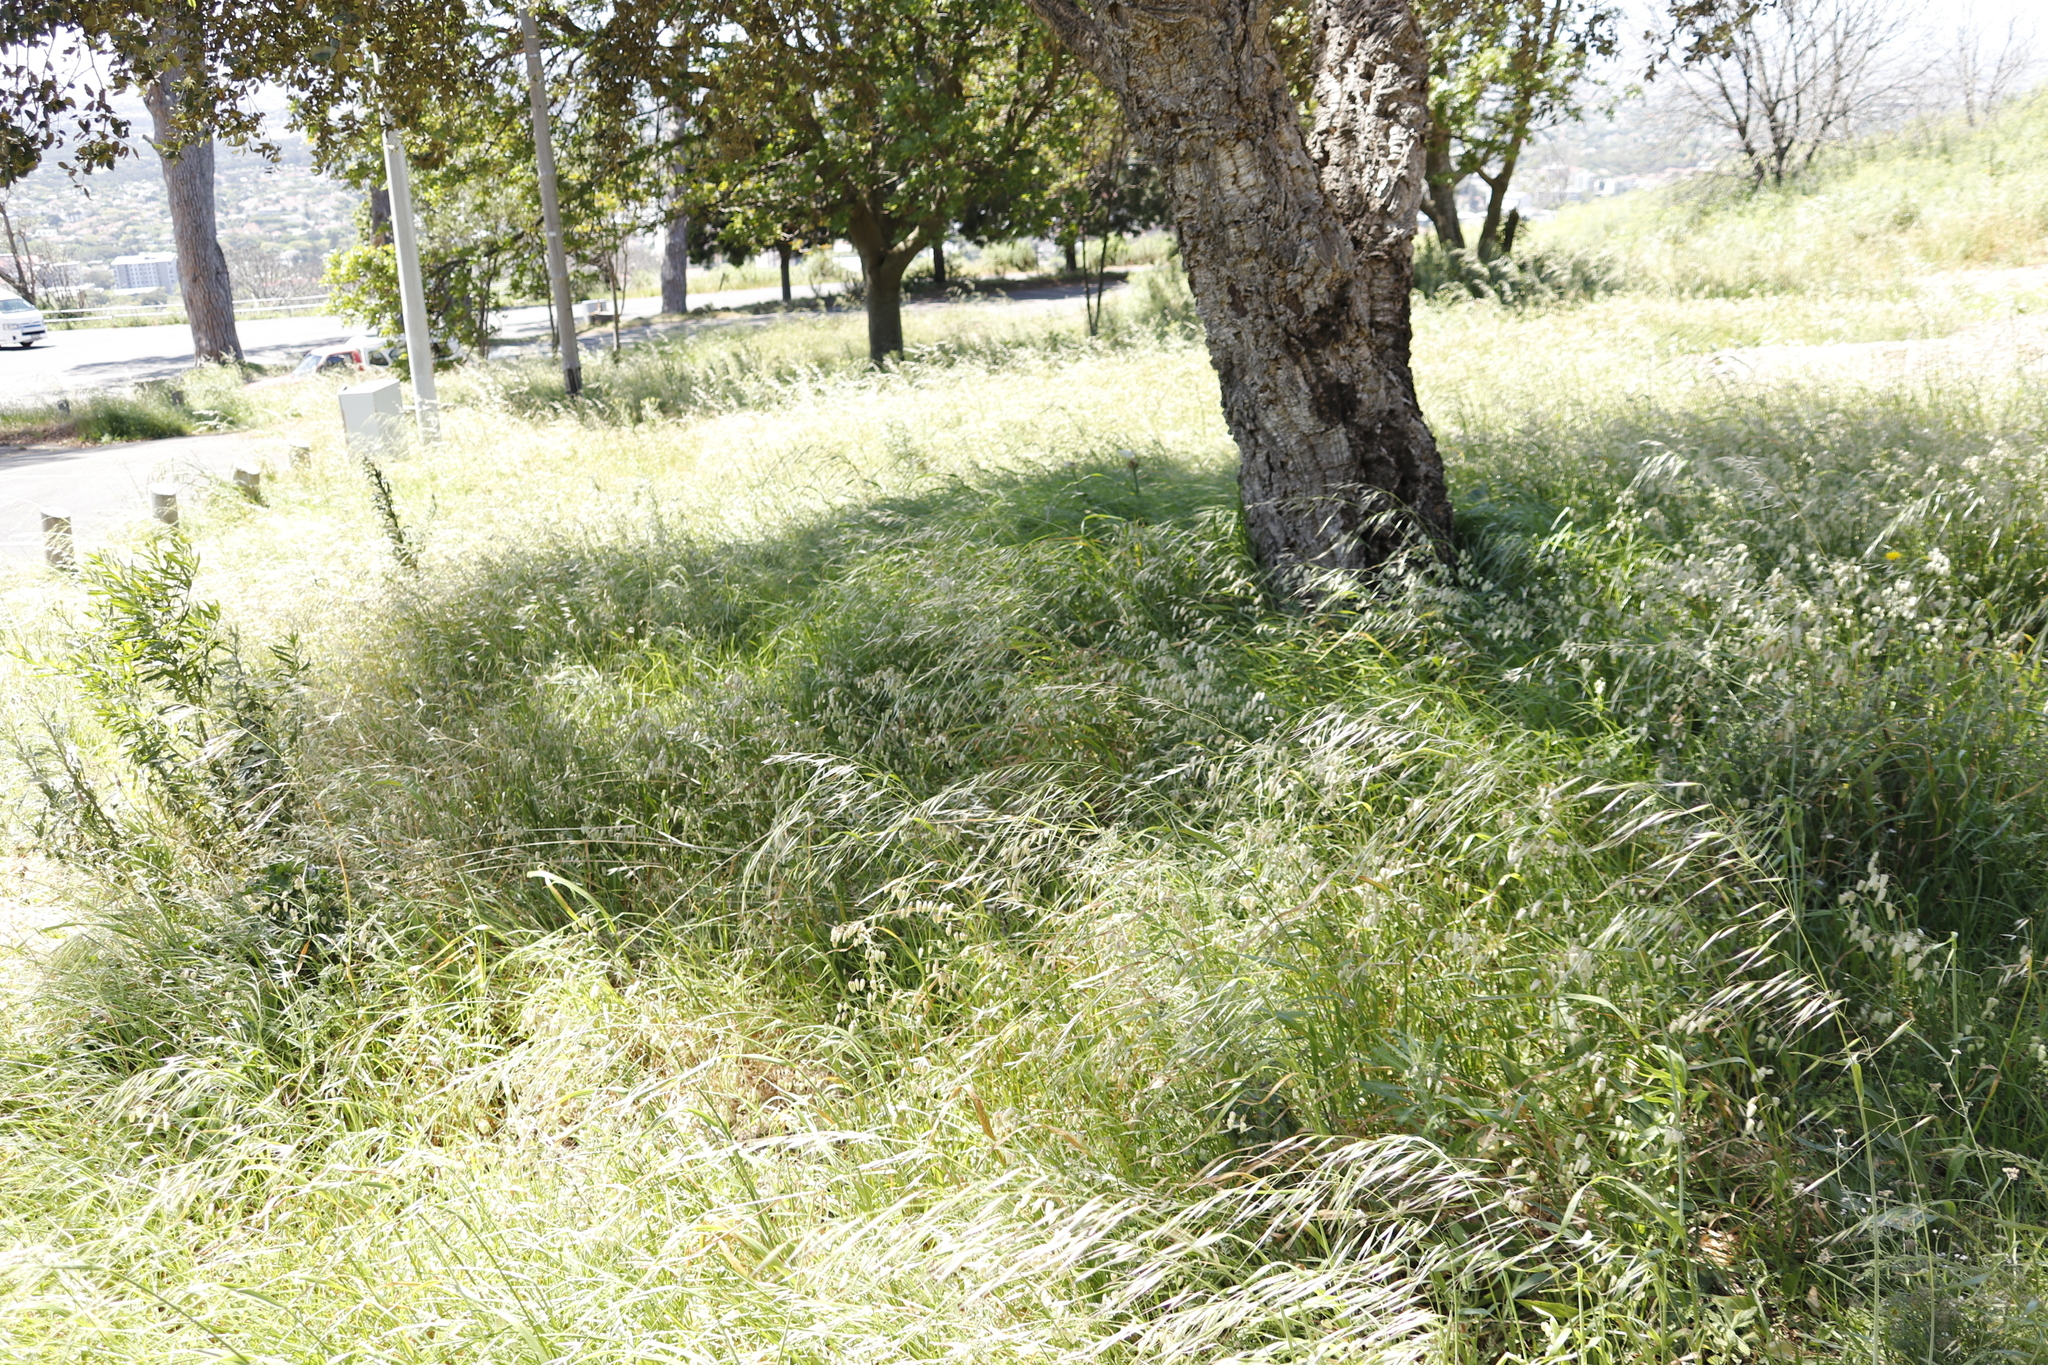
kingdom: Plantae
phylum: Tracheophyta
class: Liliopsida
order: Poales
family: Poaceae
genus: Avena
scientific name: Avena fatua
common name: Wild oat
